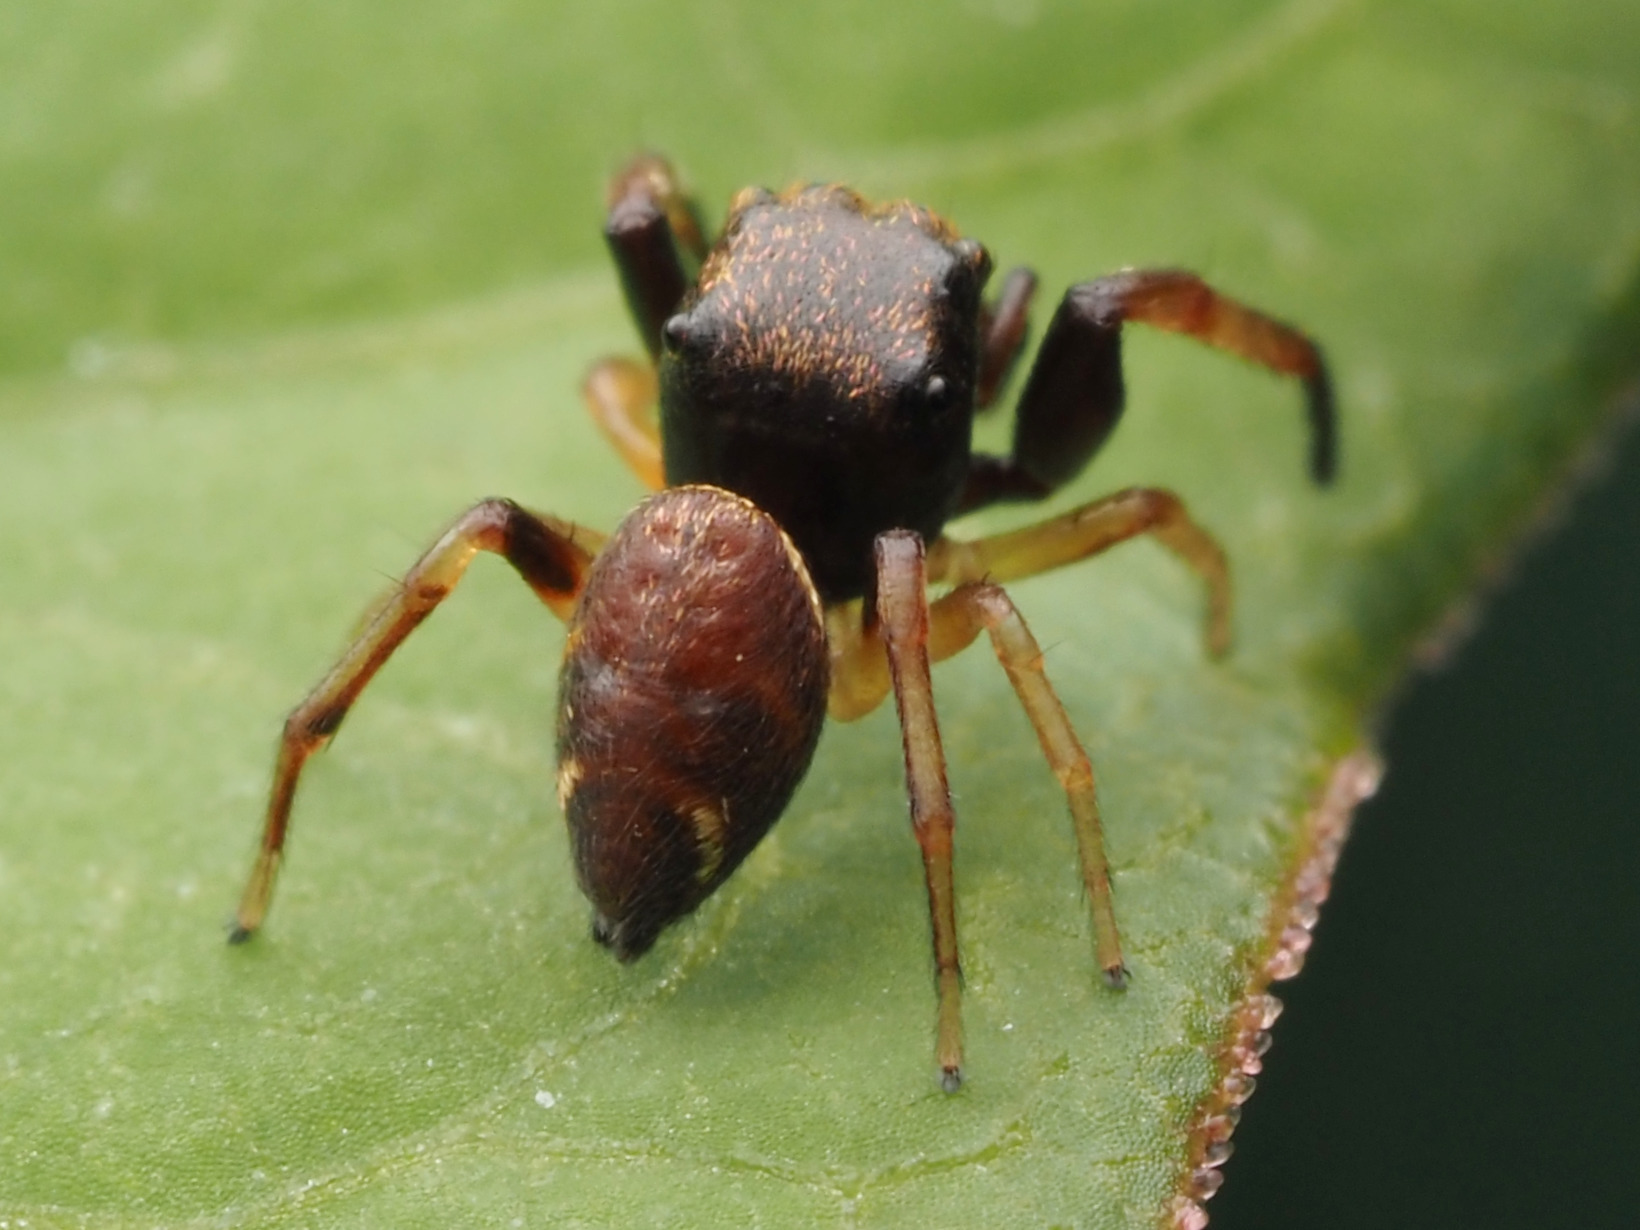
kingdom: Animalia
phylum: Arthropoda
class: Arachnida
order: Araneae
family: Salticidae
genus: Zygoballus
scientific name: Zygoballus rufipes
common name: Jumping spiders
